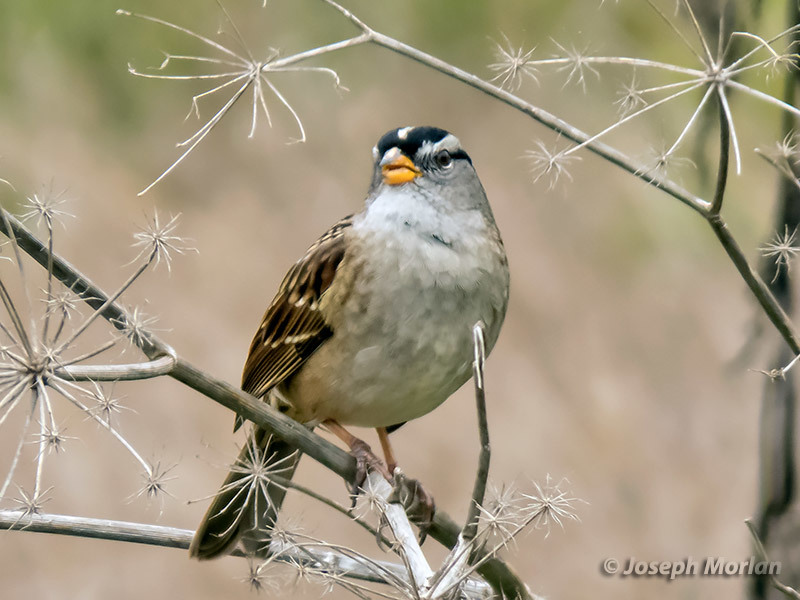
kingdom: Animalia
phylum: Chordata
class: Aves
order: Passeriformes
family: Passerellidae
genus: Zonotrichia
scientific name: Zonotrichia leucophrys
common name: White-crowned sparrow
